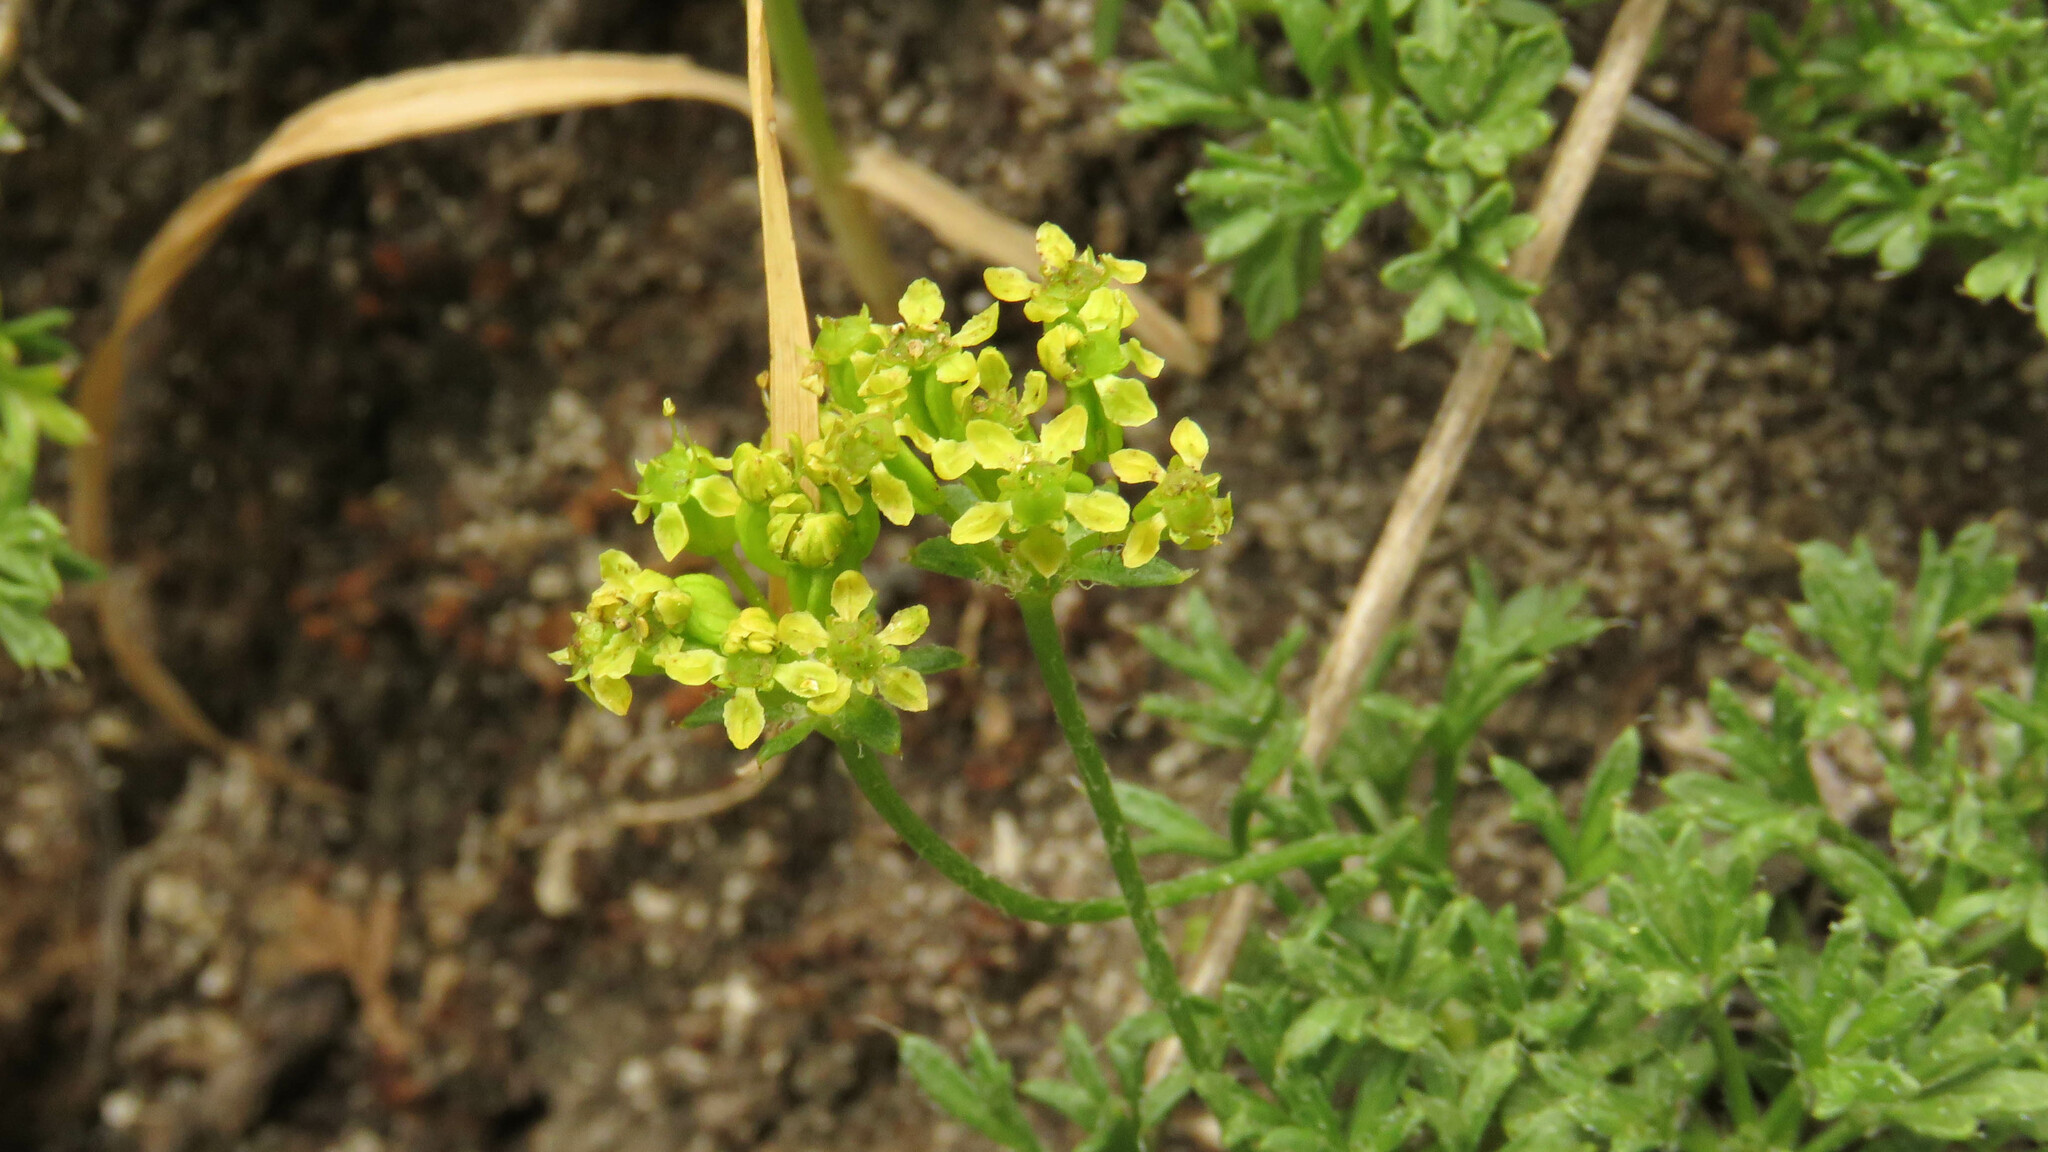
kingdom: Plantae
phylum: Tracheophyta
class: Magnoliopsida
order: Apiales
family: Apiaceae
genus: Azorella
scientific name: Azorella microphylla
